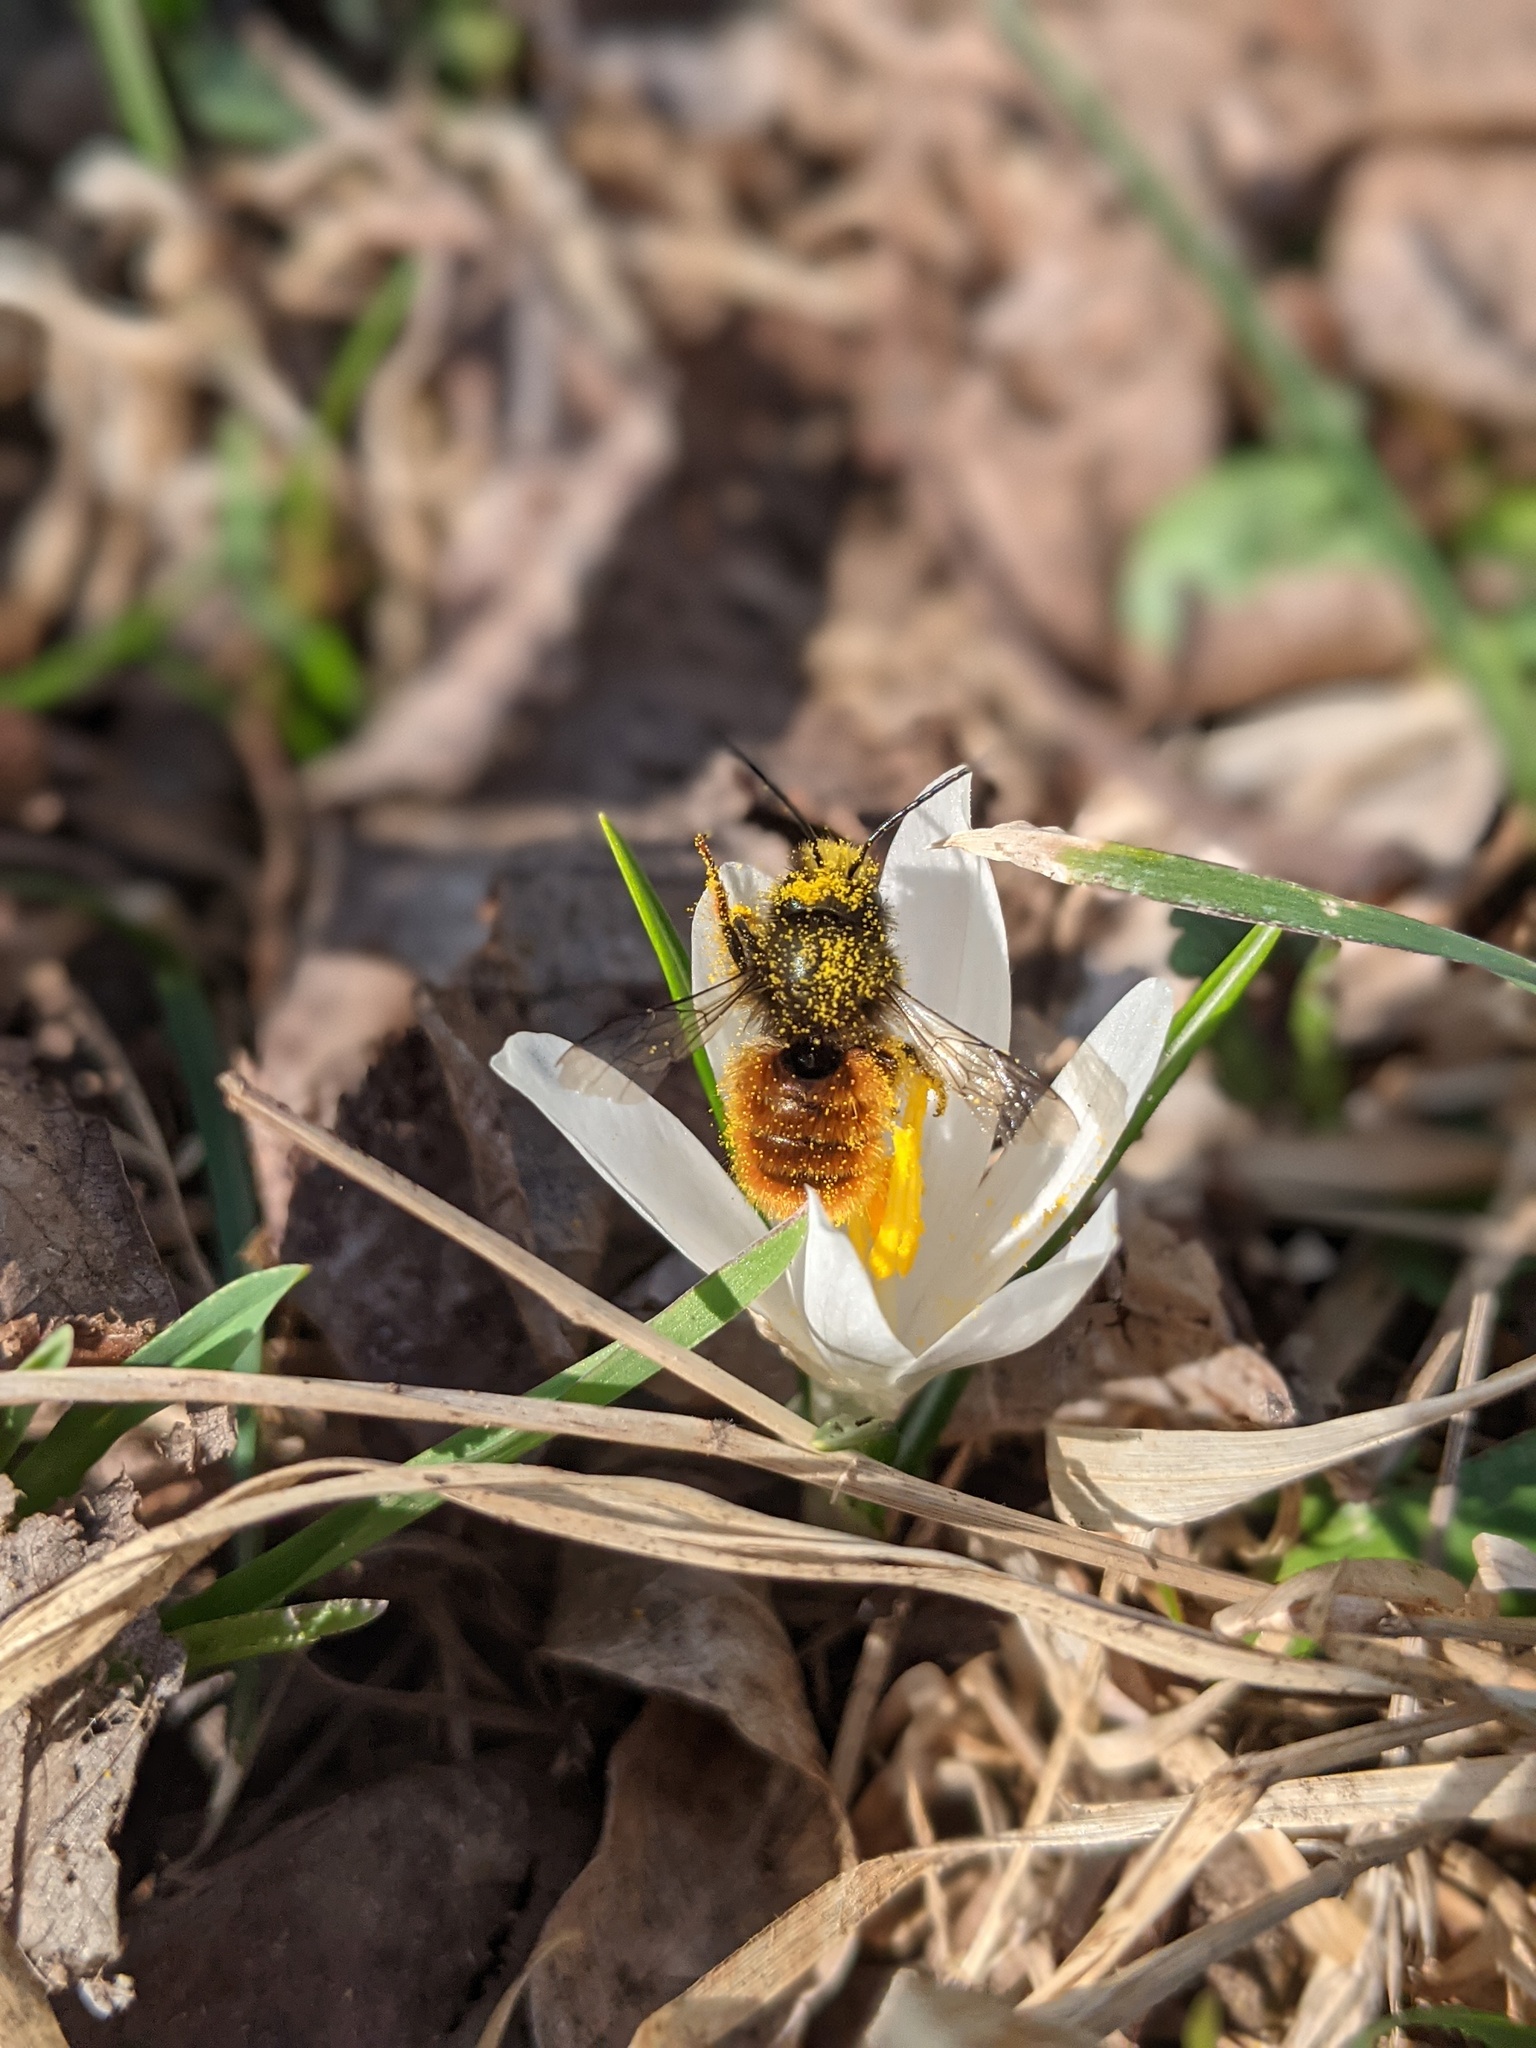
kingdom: Animalia
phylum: Arthropoda
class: Insecta
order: Hymenoptera
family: Megachilidae
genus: Osmia
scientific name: Osmia cornuta
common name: Mason bee
